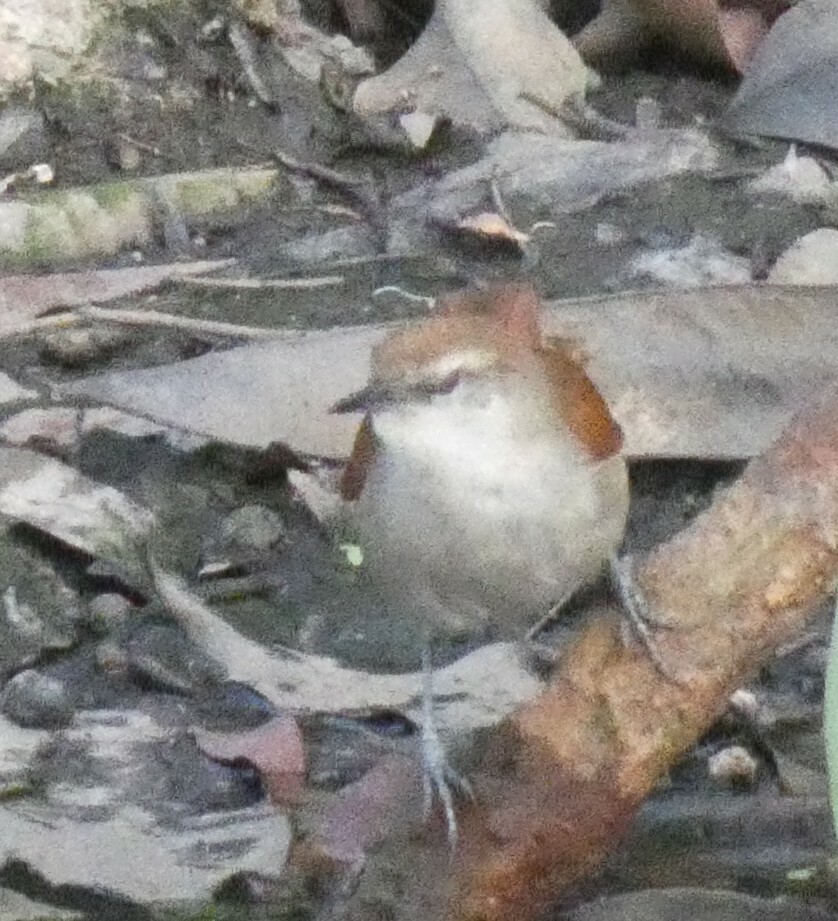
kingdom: Animalia
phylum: Chordata
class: Aves
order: Passeriformes
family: Furnariidae
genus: Certhiaxis
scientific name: Certhiaxis cinnamomeus
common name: Yellow-chinned spinetail
